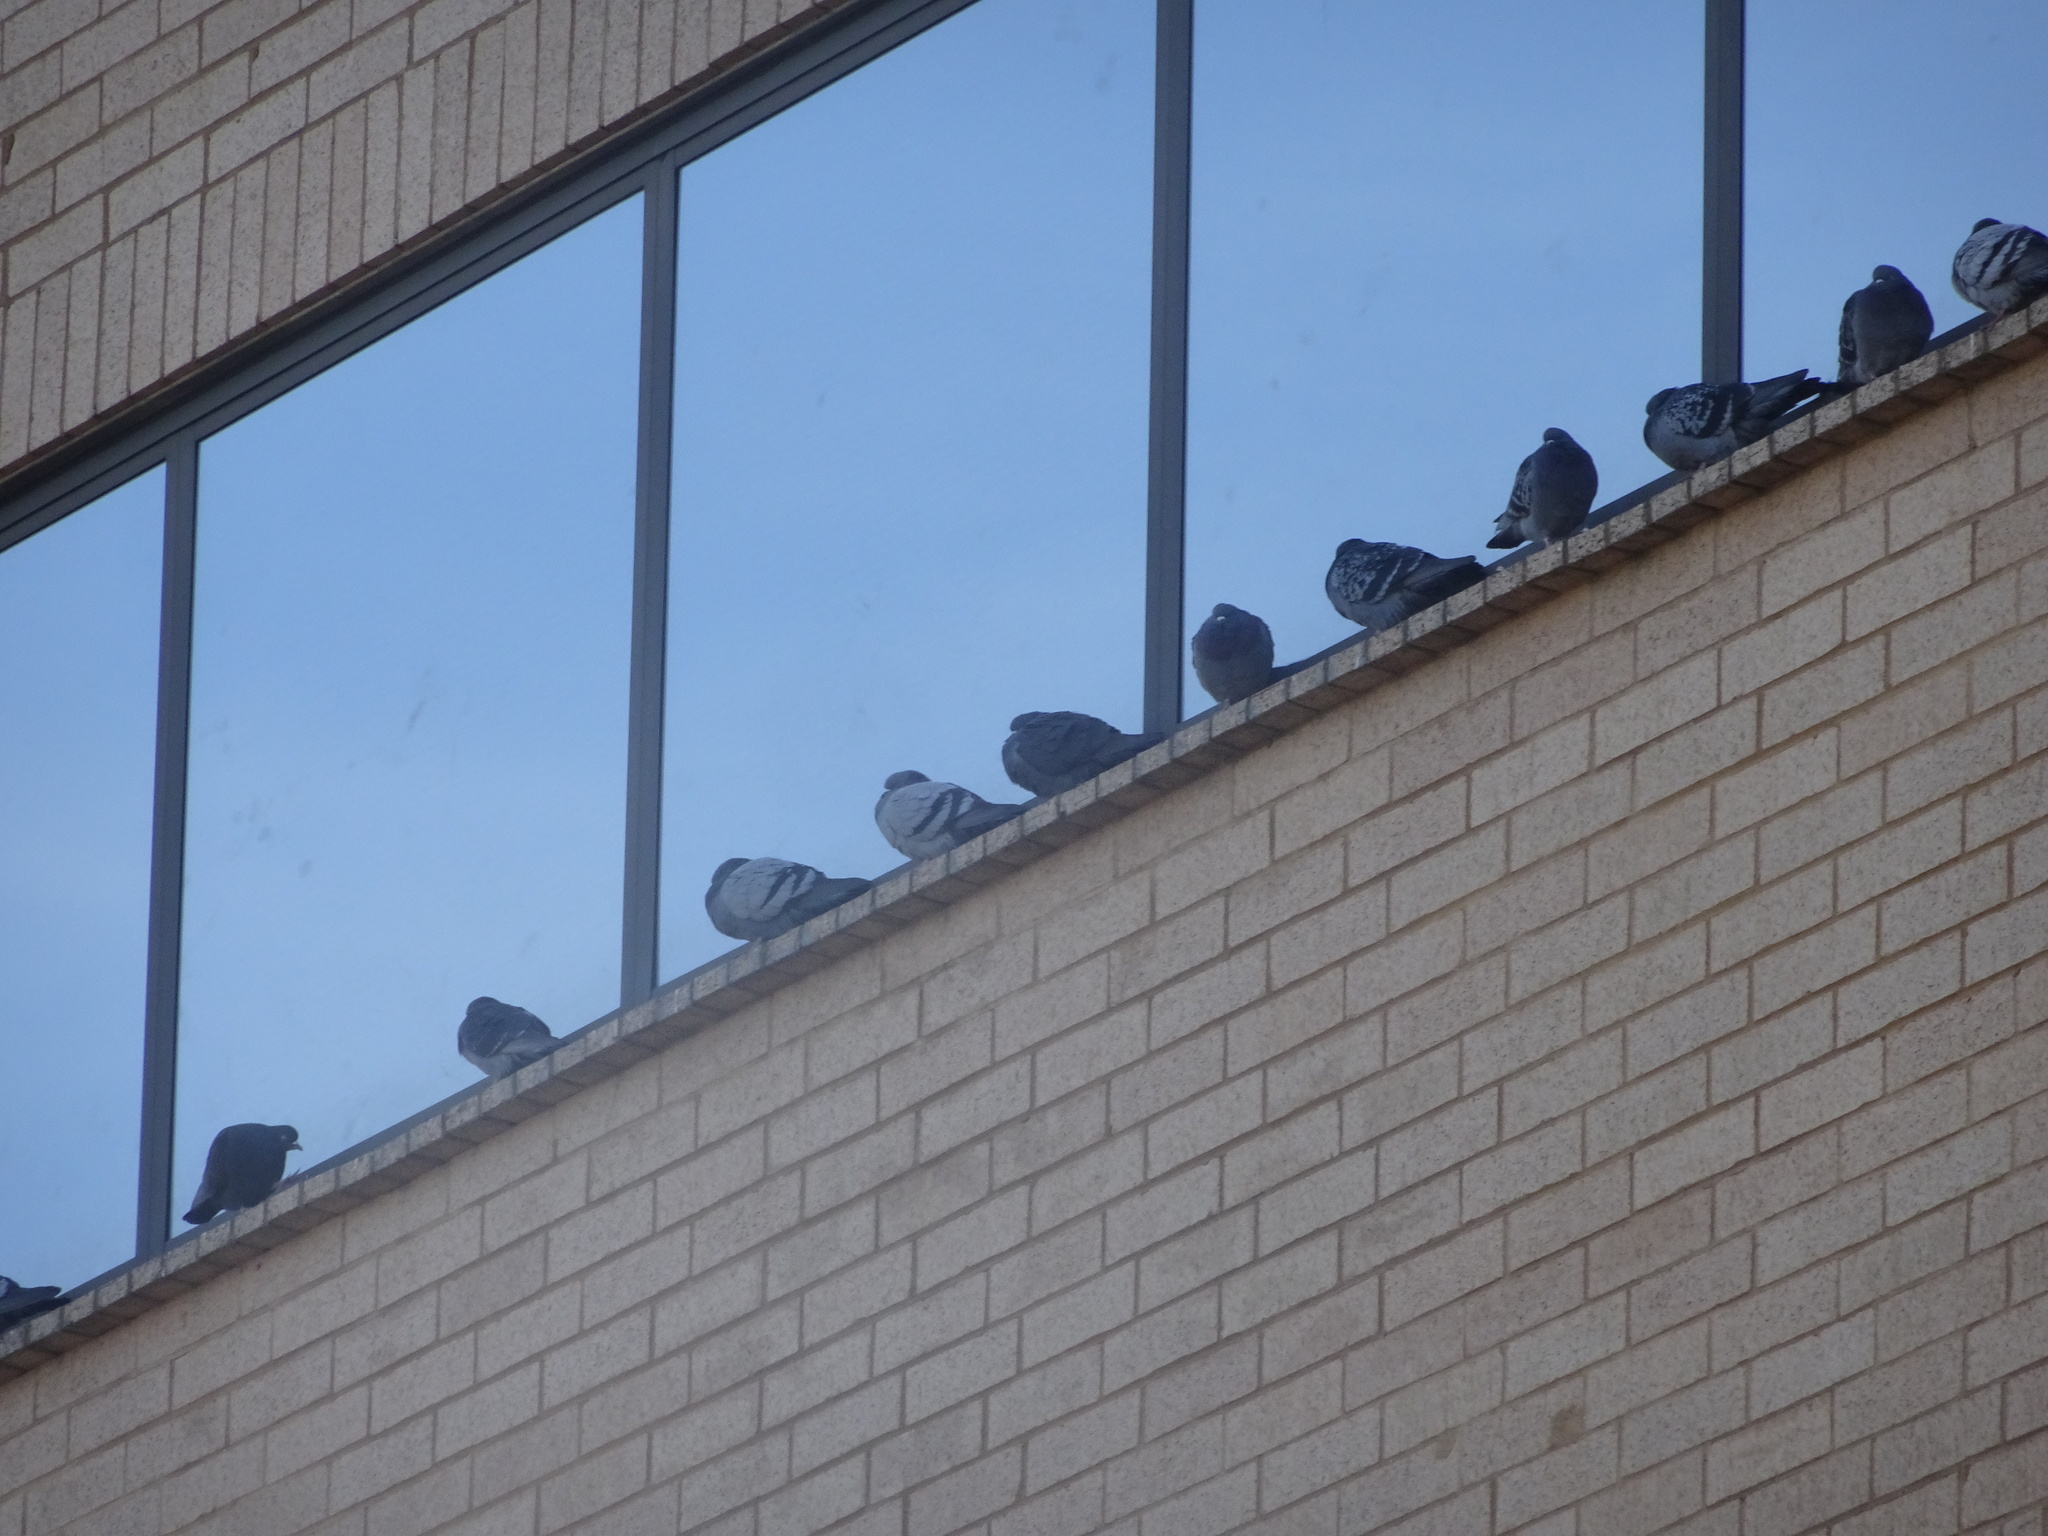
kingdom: Animalia
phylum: Chordata
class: Aves
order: Columbiformes
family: Columbidae
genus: Columba
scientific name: Columba livia
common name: Rock pigeon
